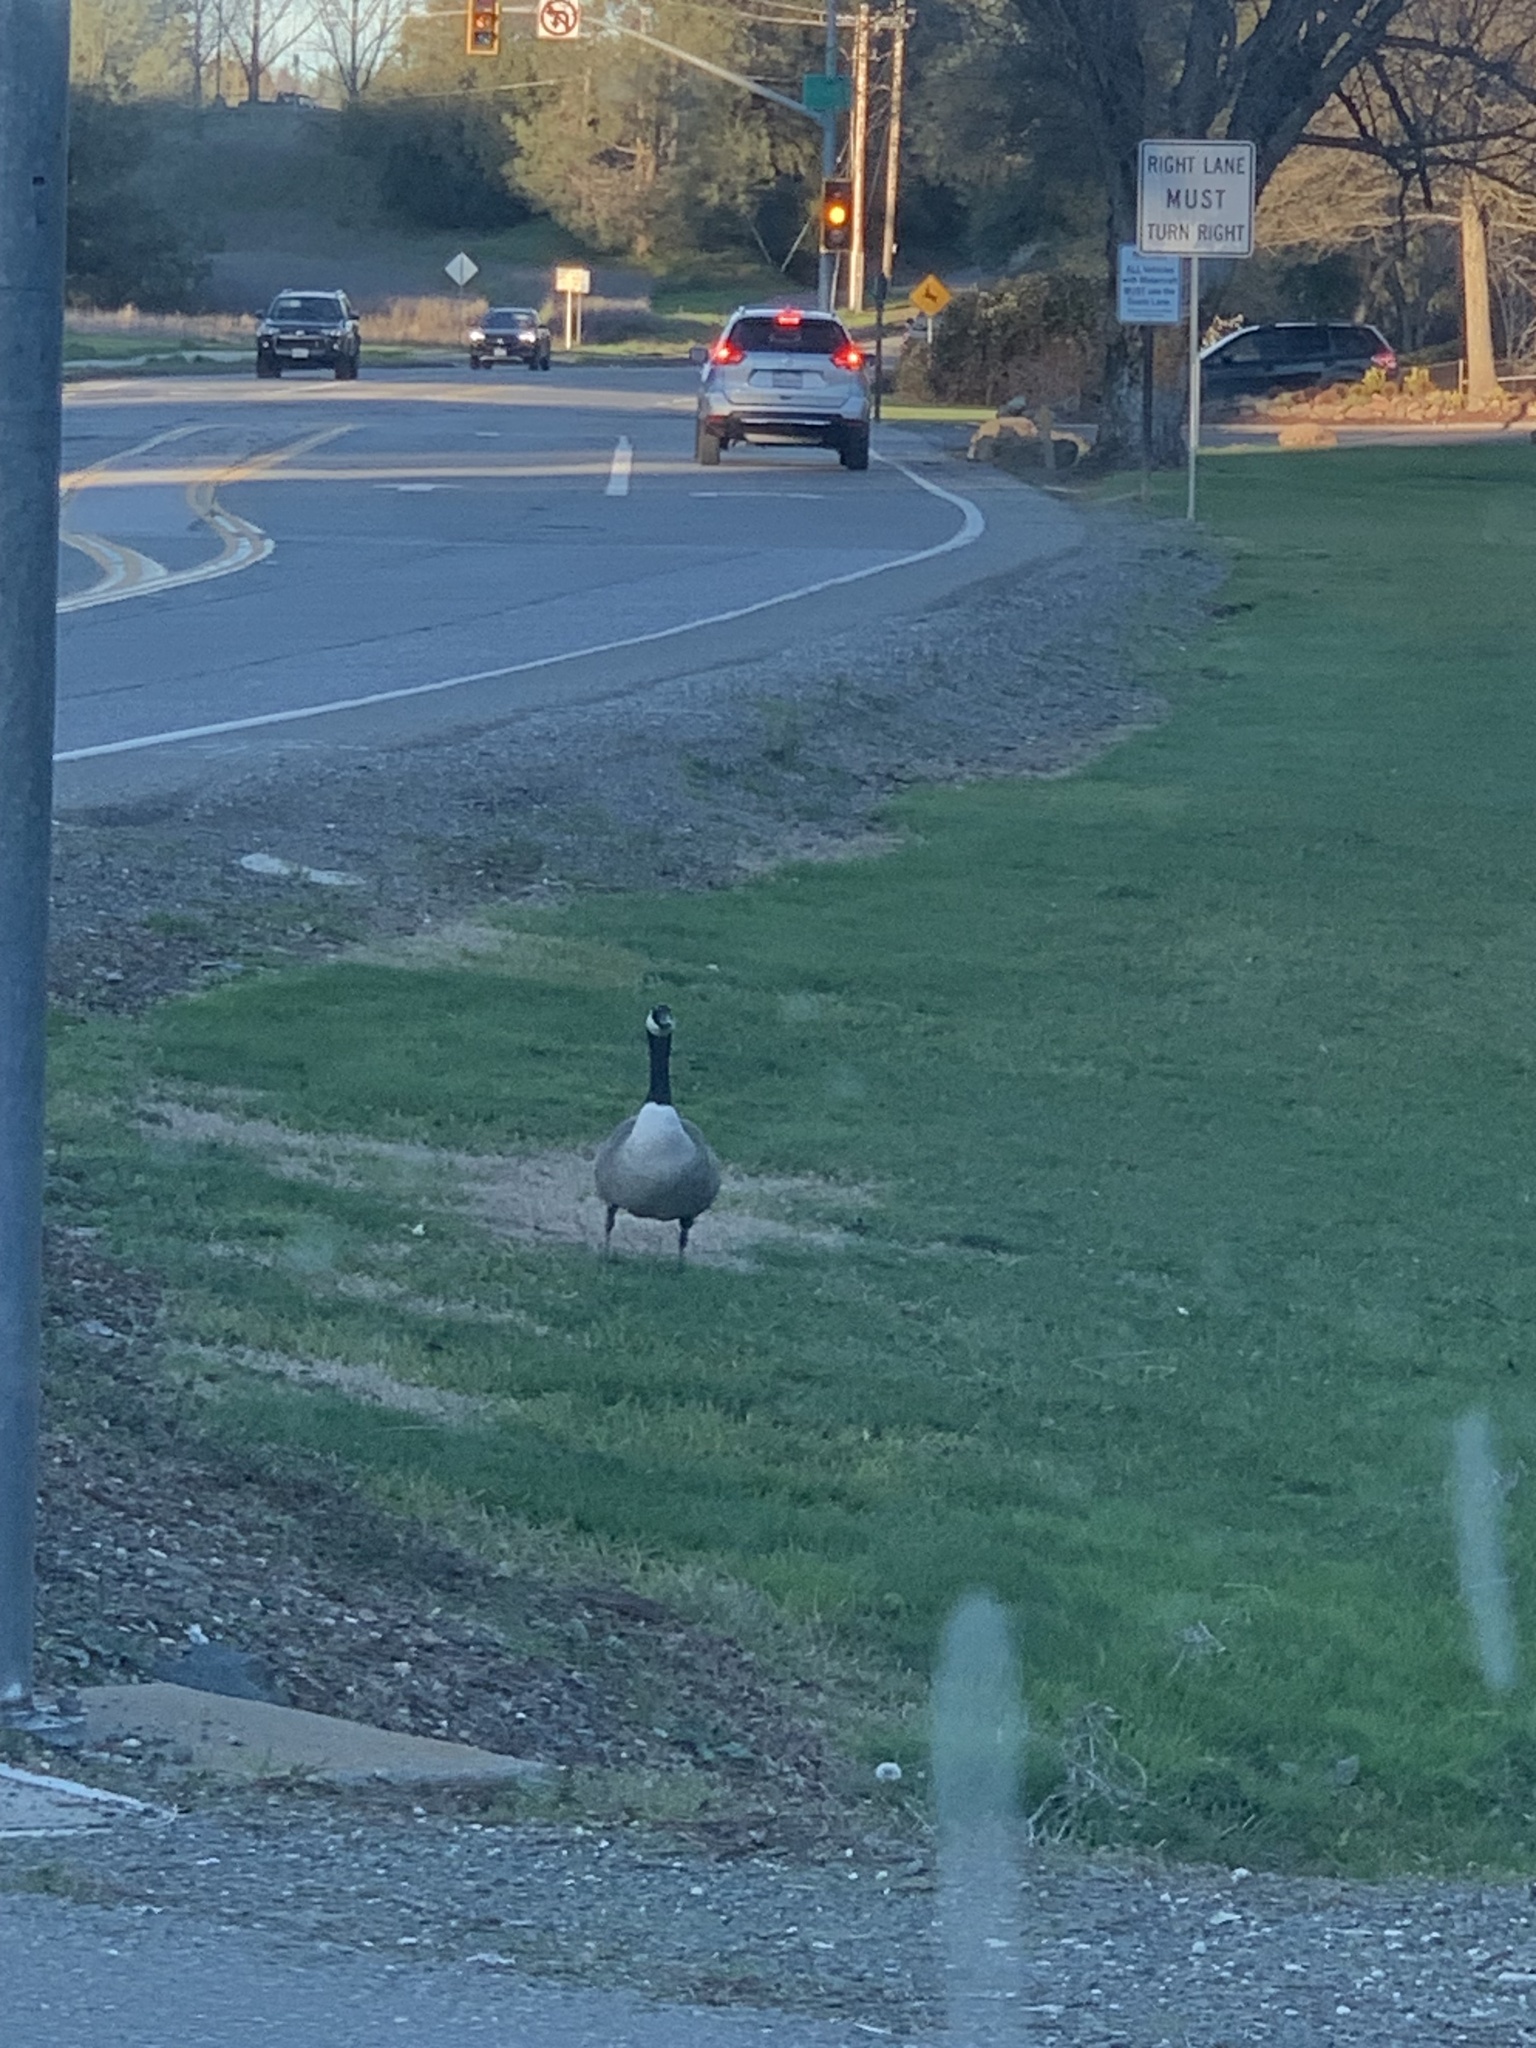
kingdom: Animalia
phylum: Chordata
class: Aves
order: Anseriformes
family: Anatidae
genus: Branta
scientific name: Branta canadensis
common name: Canada goose
